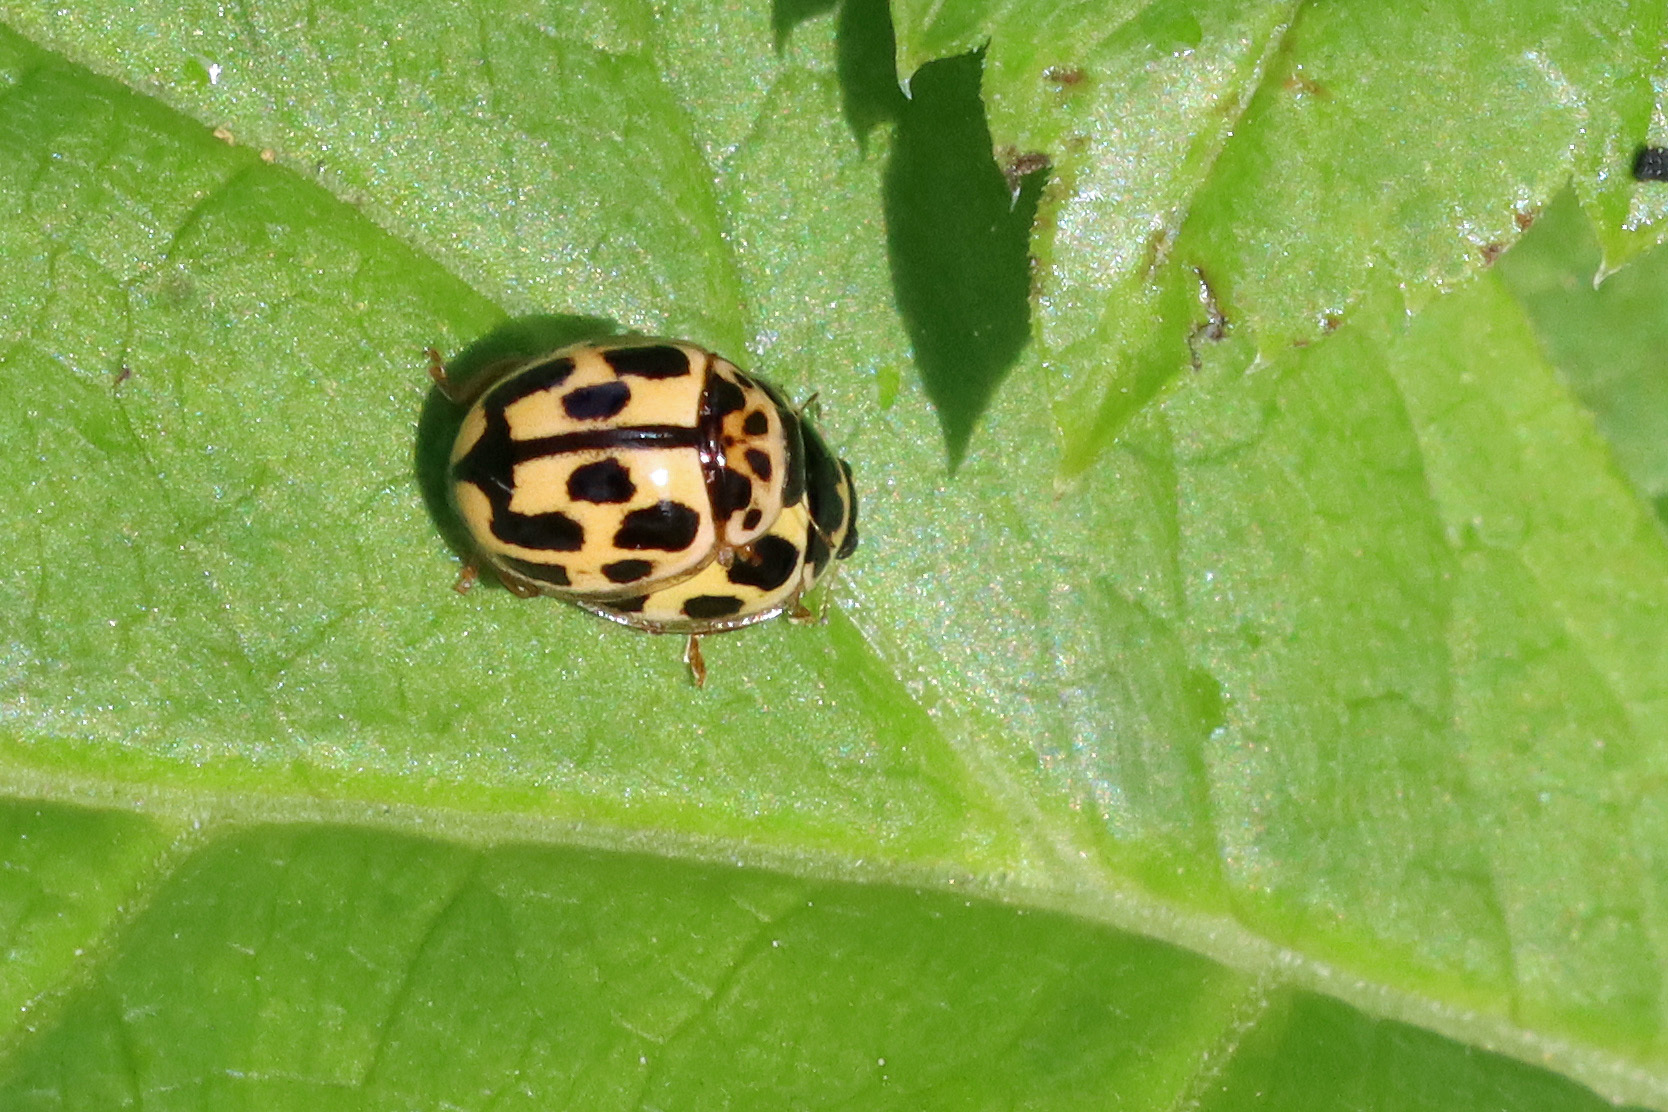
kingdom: Animalia
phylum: Arthropoda
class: Insecta
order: Coleoptera
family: Coccinellidae
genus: Propylaea
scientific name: Propylaea quatuordecimpunctata
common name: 14-spotted ladybird beetle
